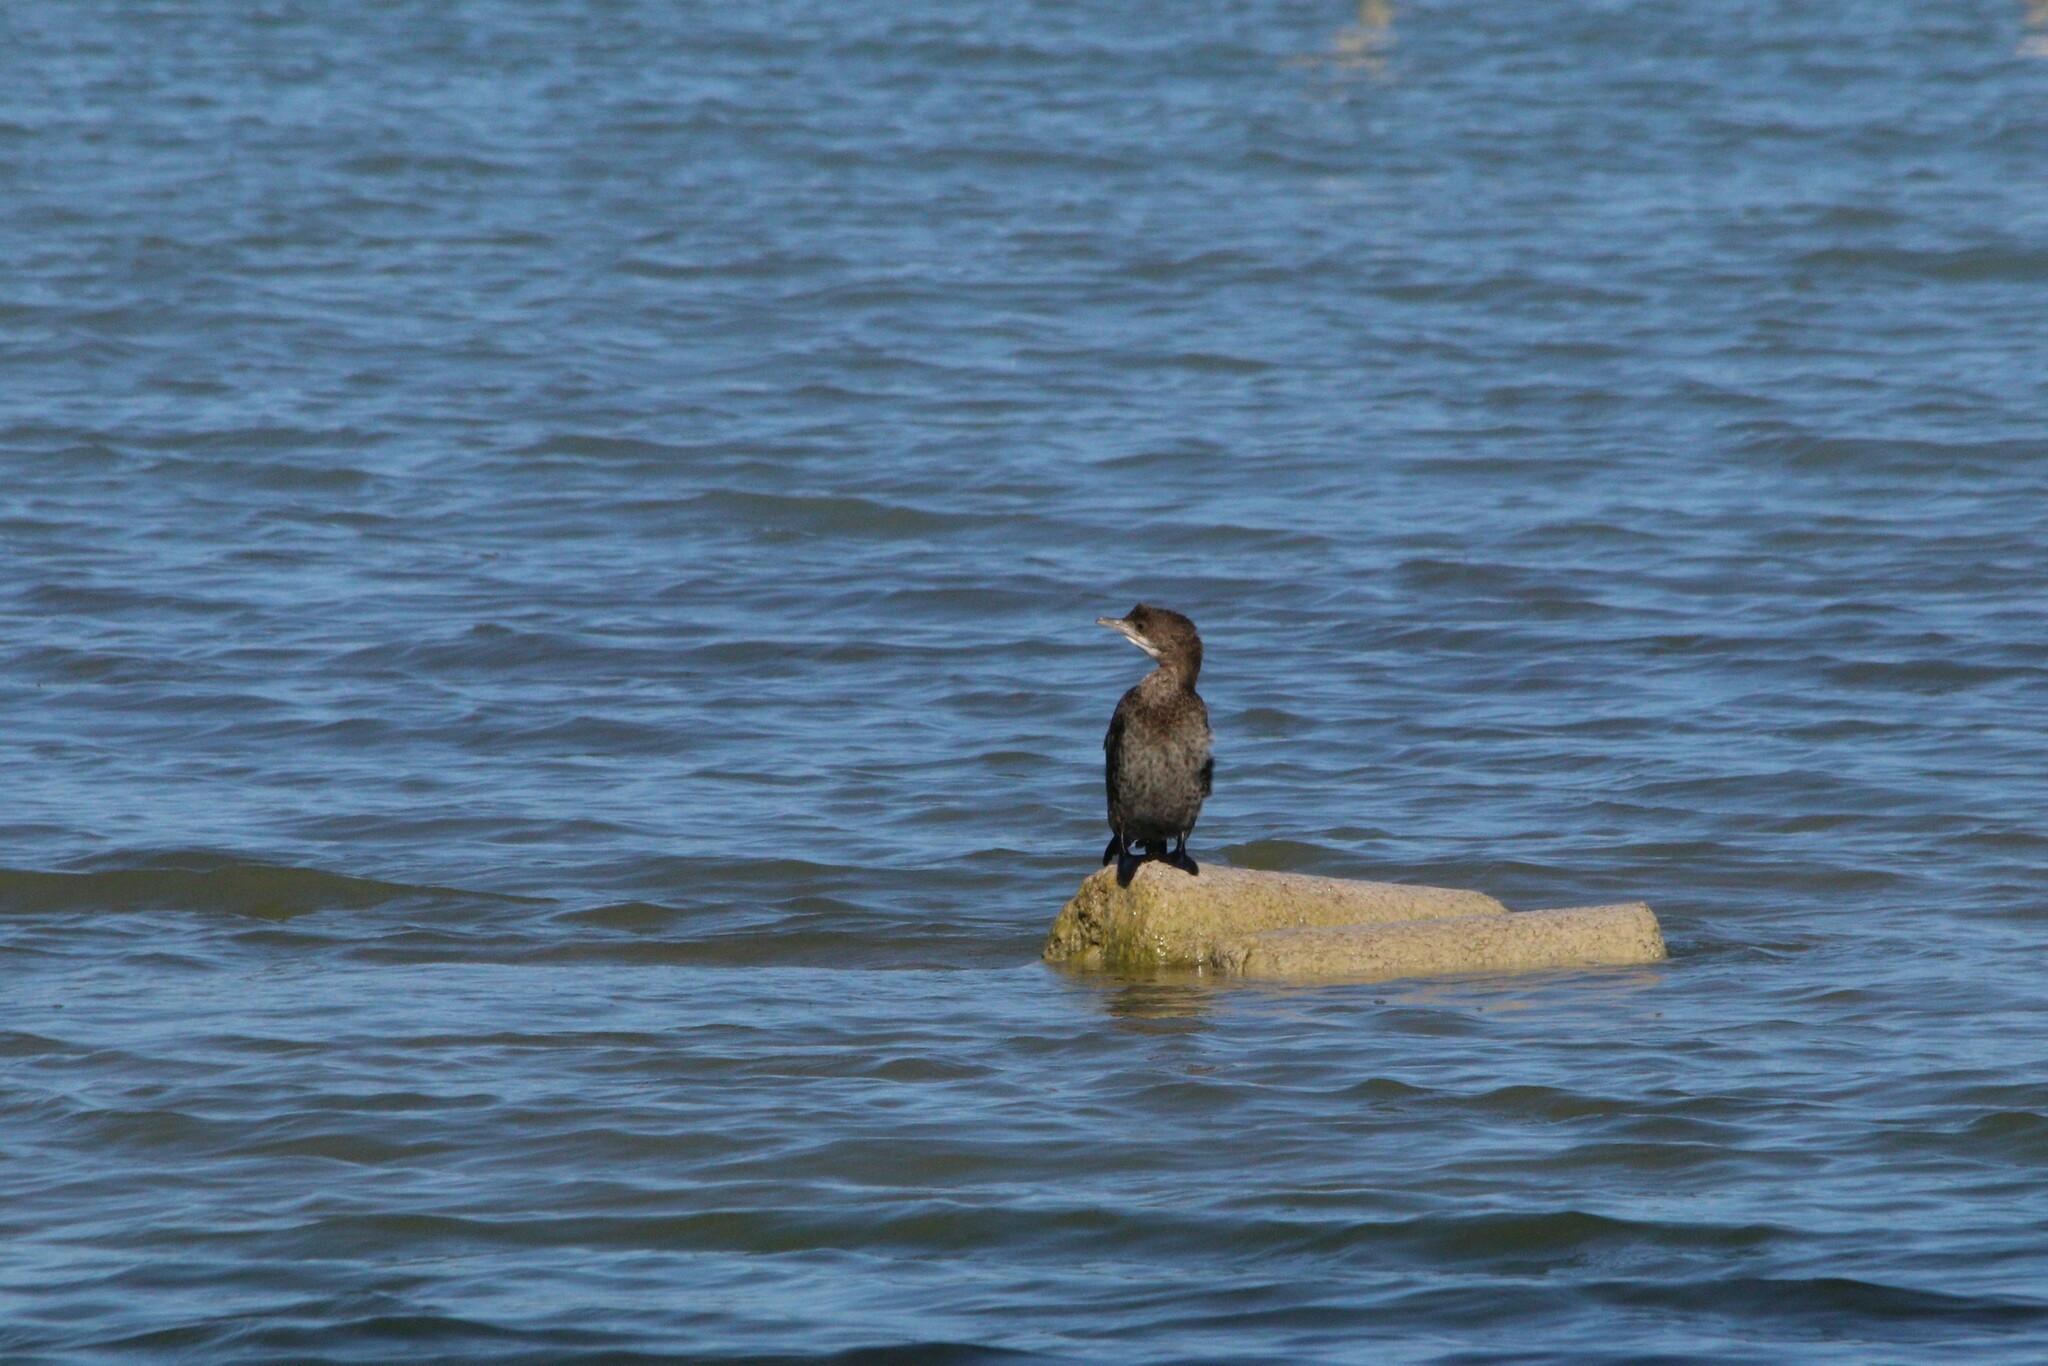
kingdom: Animalia
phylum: Chordata
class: Aves
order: Suliformes
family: Phalacrocoracidae
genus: Microcarbo
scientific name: Microcarbo pygmaeus
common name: Pygmy cormorant
